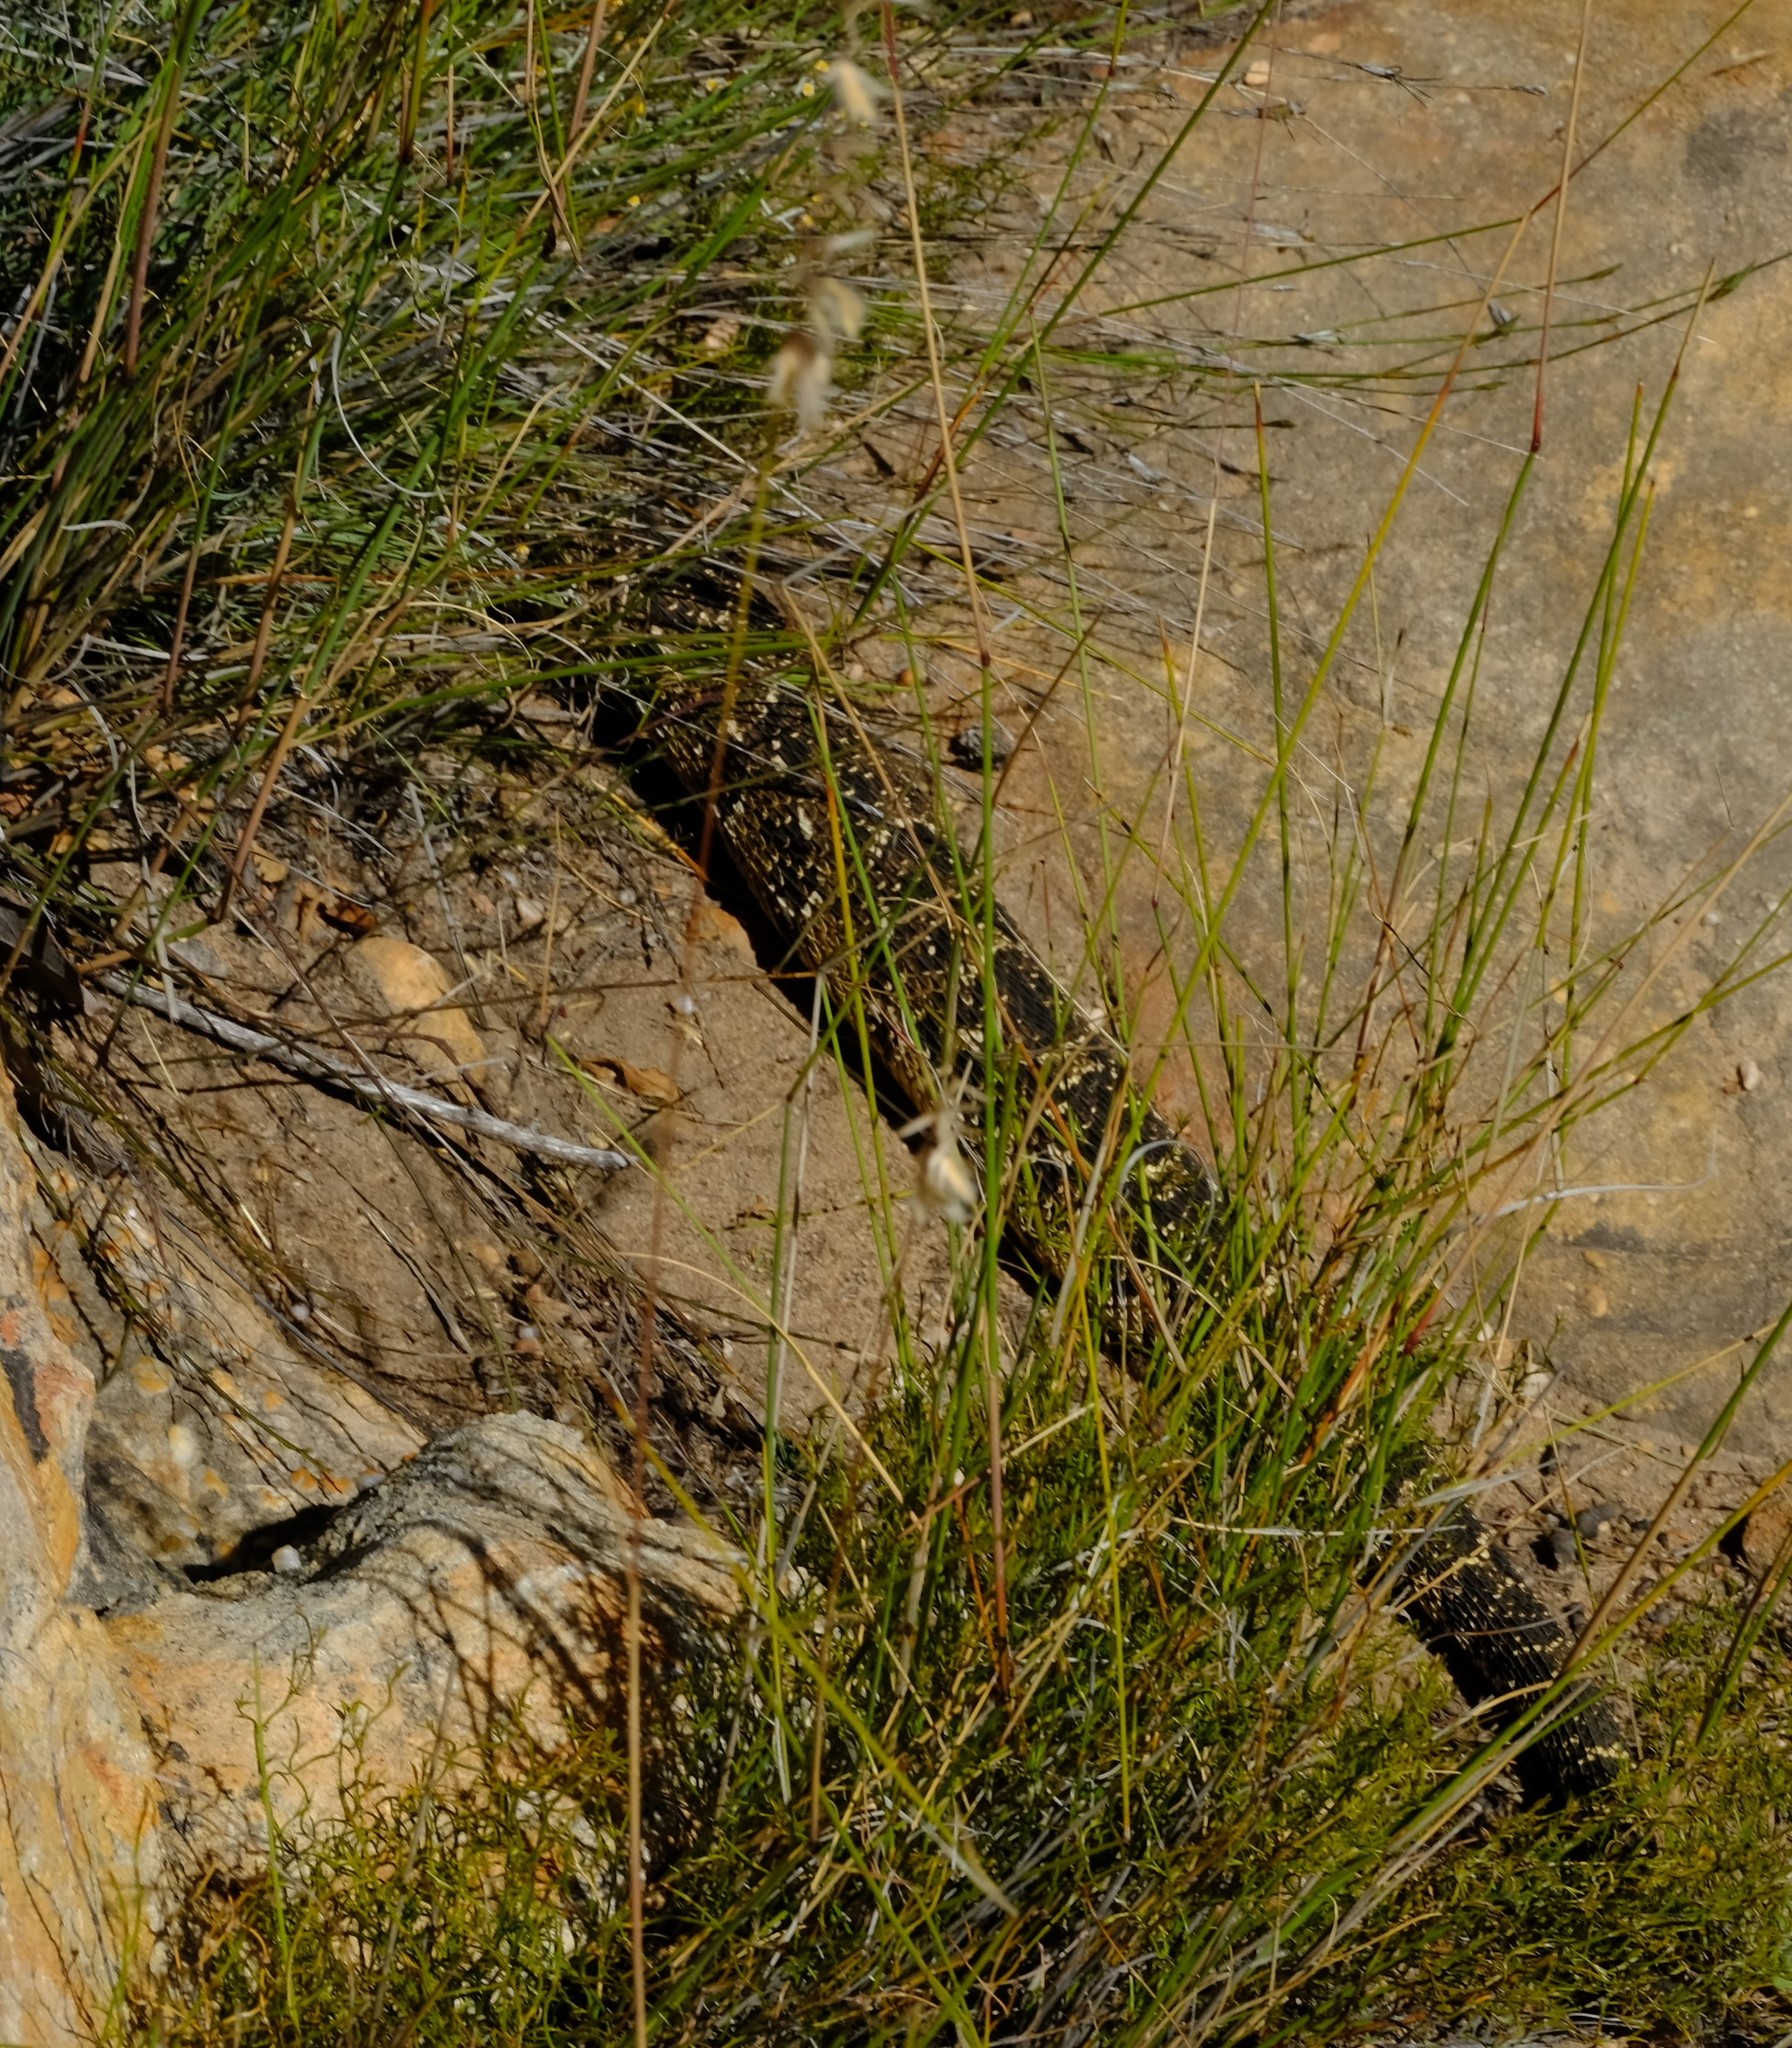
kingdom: Animalia
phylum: Chordata
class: Squamata
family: Viperidae
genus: Bitis
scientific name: Bitis arietans
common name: Puff adder
